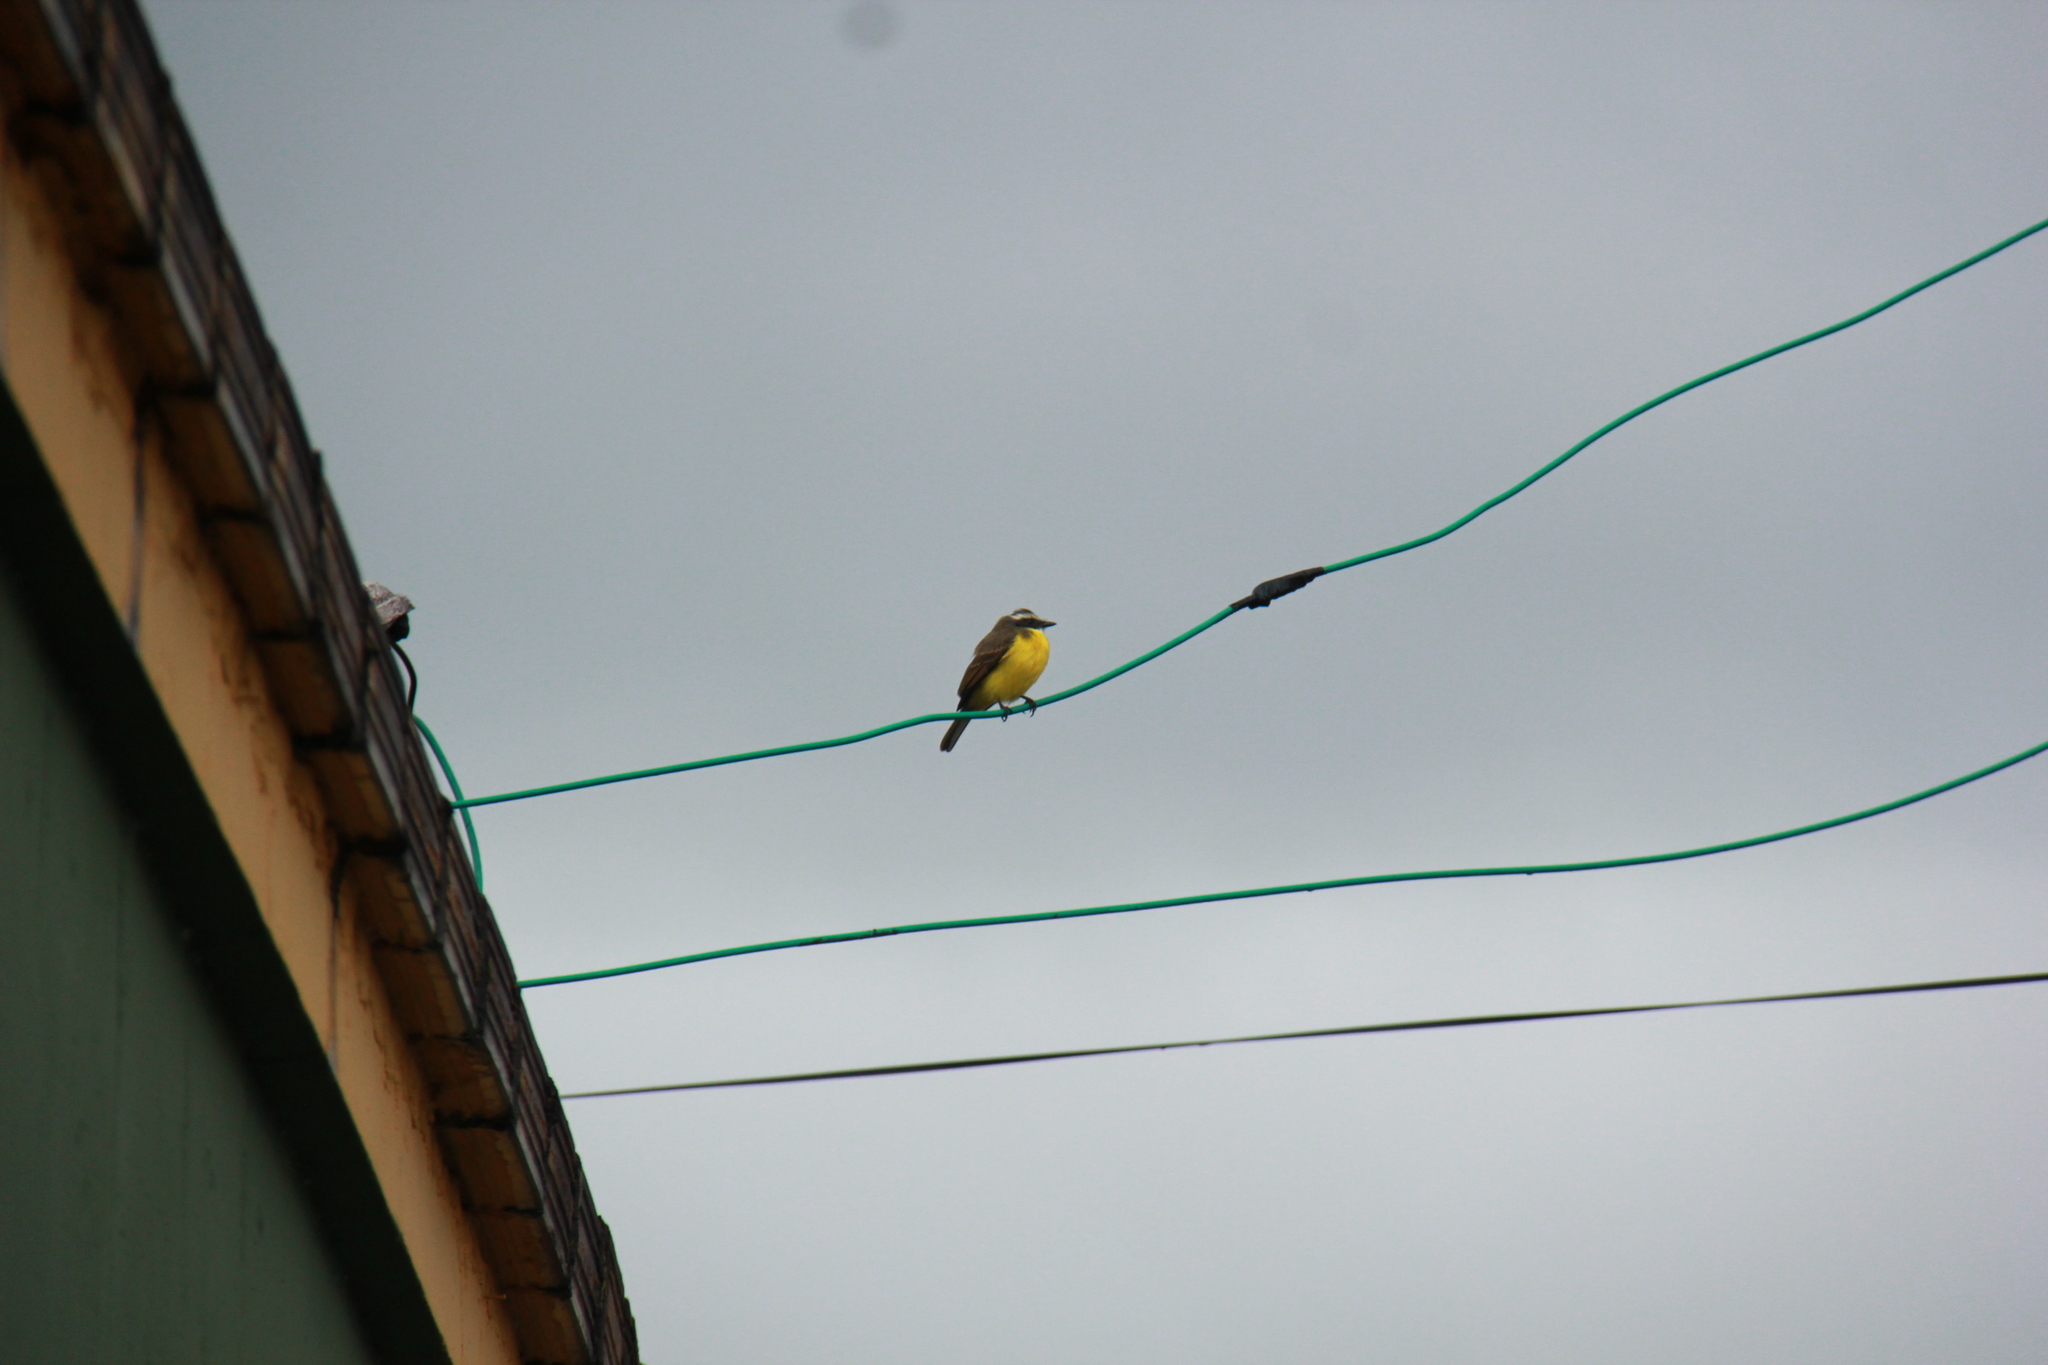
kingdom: Animalia
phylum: Chordata
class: Aves
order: Passeriformes
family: Tyrannidae
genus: Myiozetetes
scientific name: Myiozetetes similis
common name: Social flycatcher
